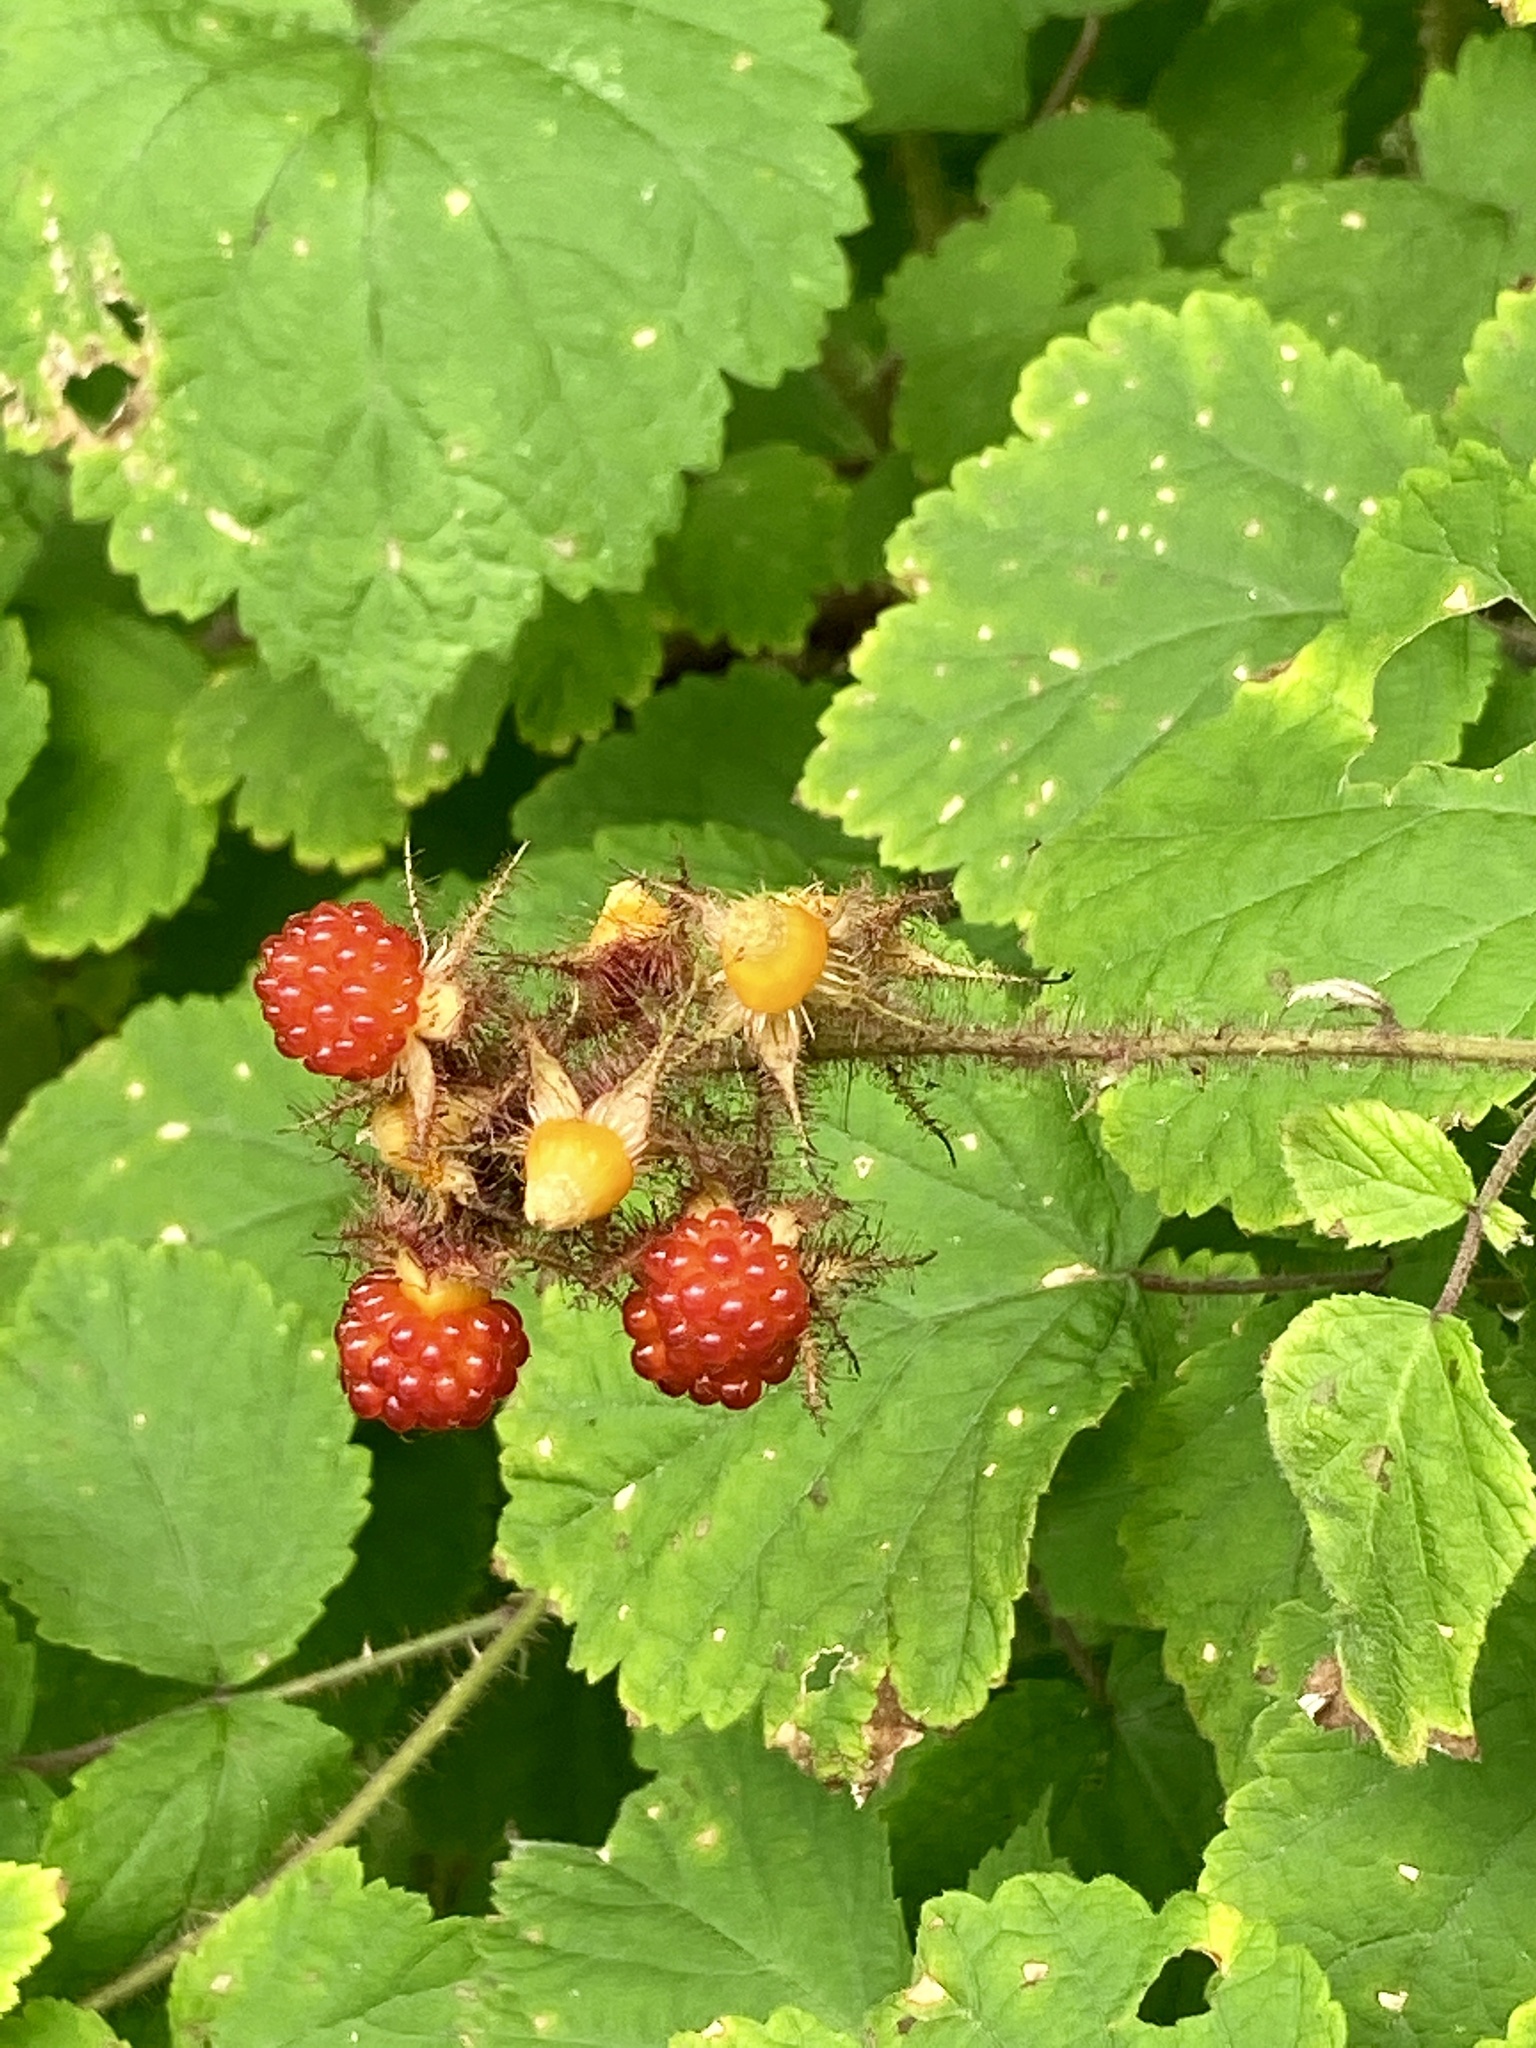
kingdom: Plantae
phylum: Tracheophyta
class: Magnoliopsida
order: Rosales
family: Rosaceae
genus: Rubus
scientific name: Rubus phoenicolasius
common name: Japanese wineberry
